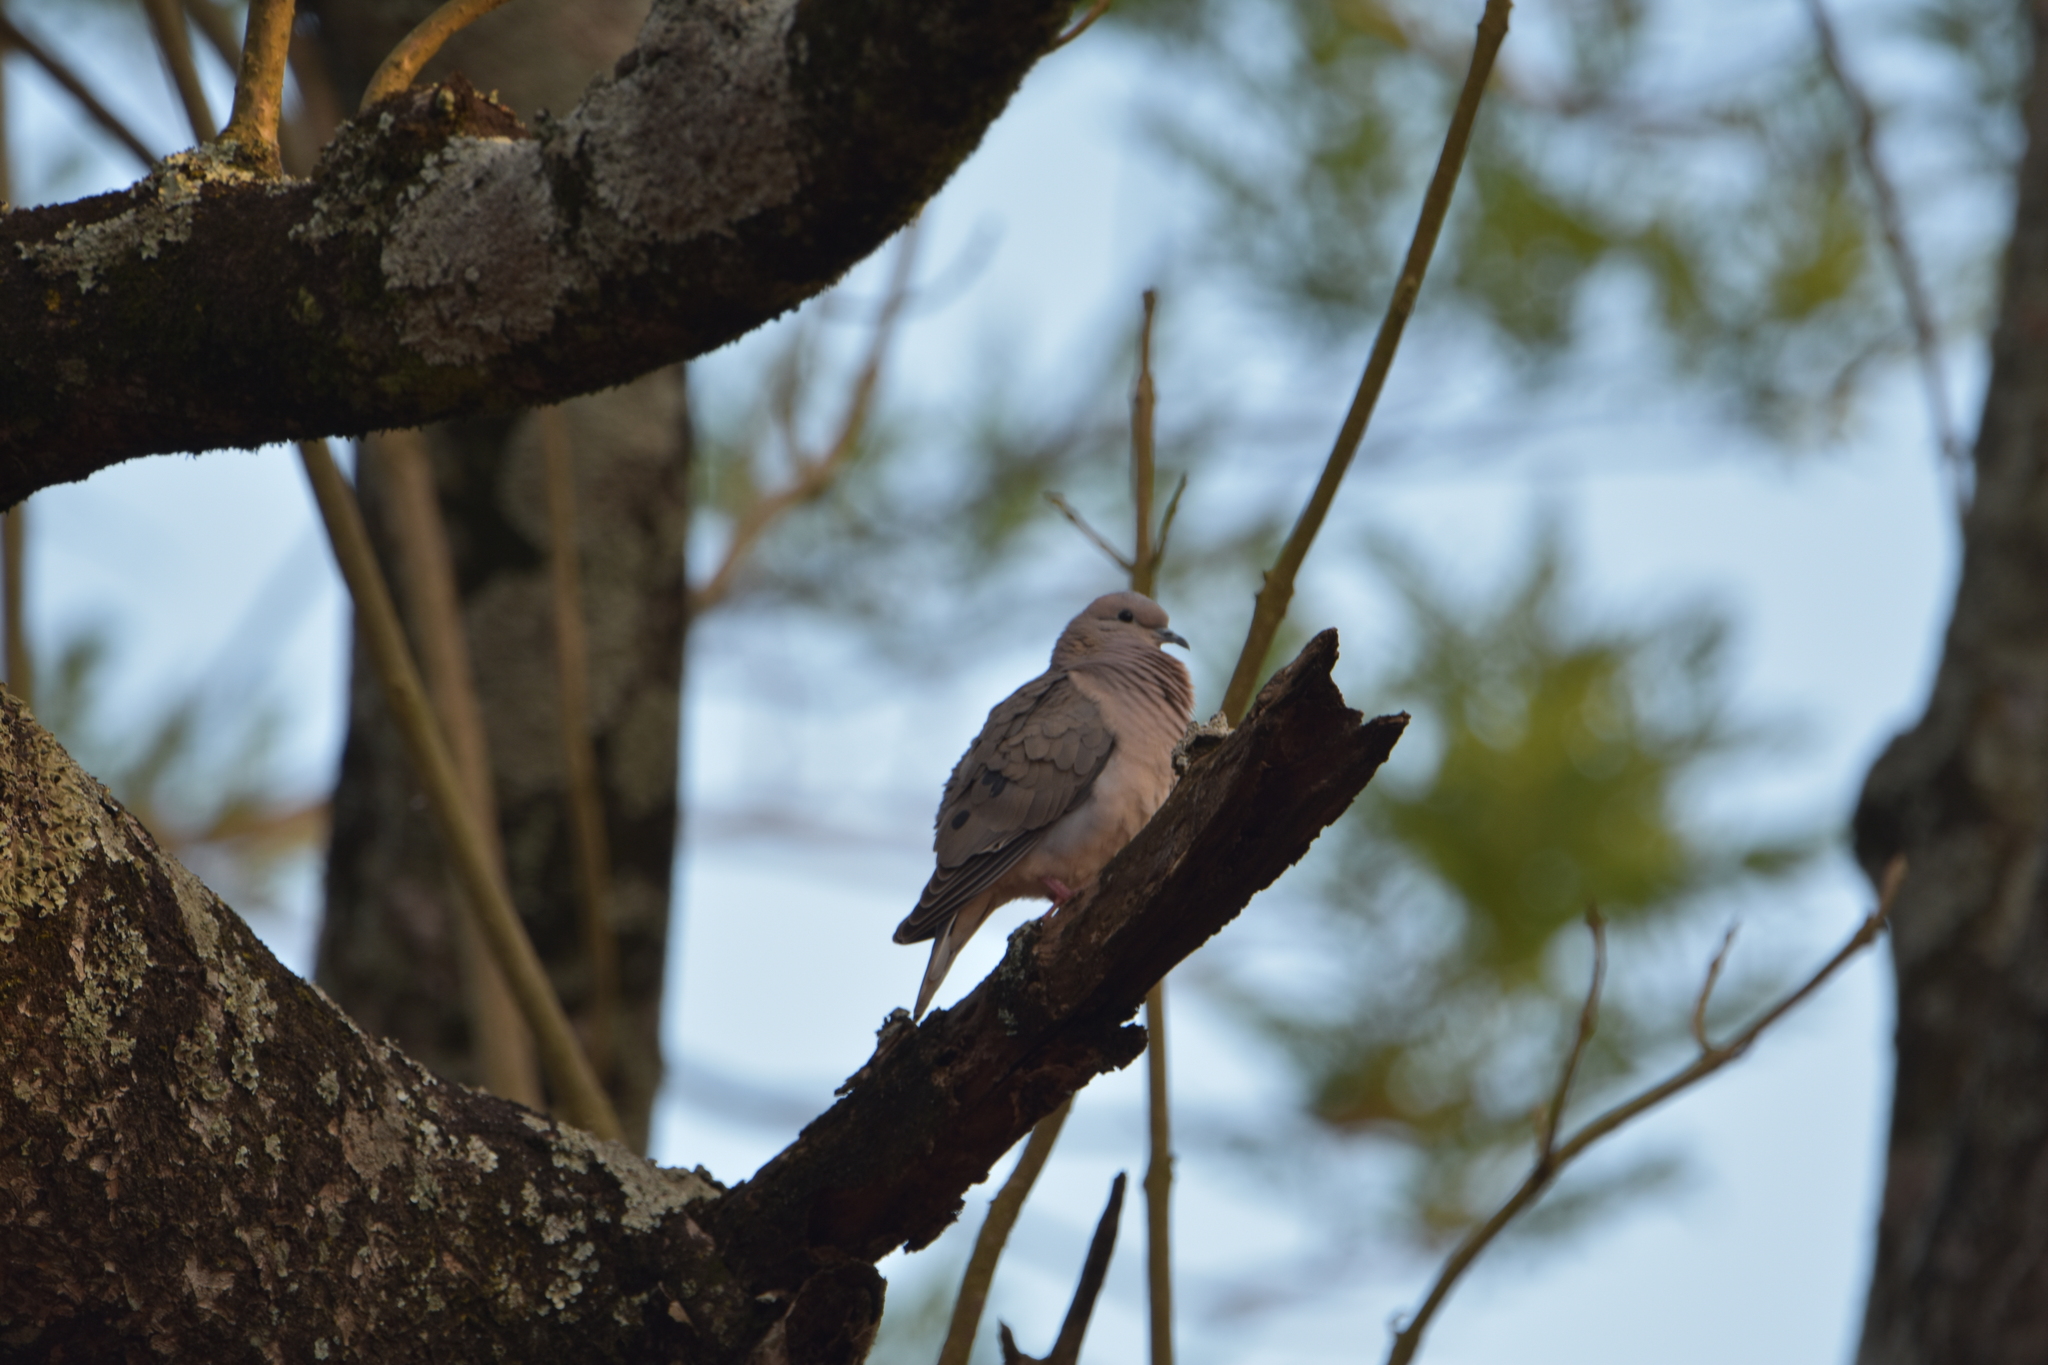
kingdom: Animalia
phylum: Chordata
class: Aves
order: Columbiformes
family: Columbidae
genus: Zenaida
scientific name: Zenaida auriculata
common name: Eared dove
